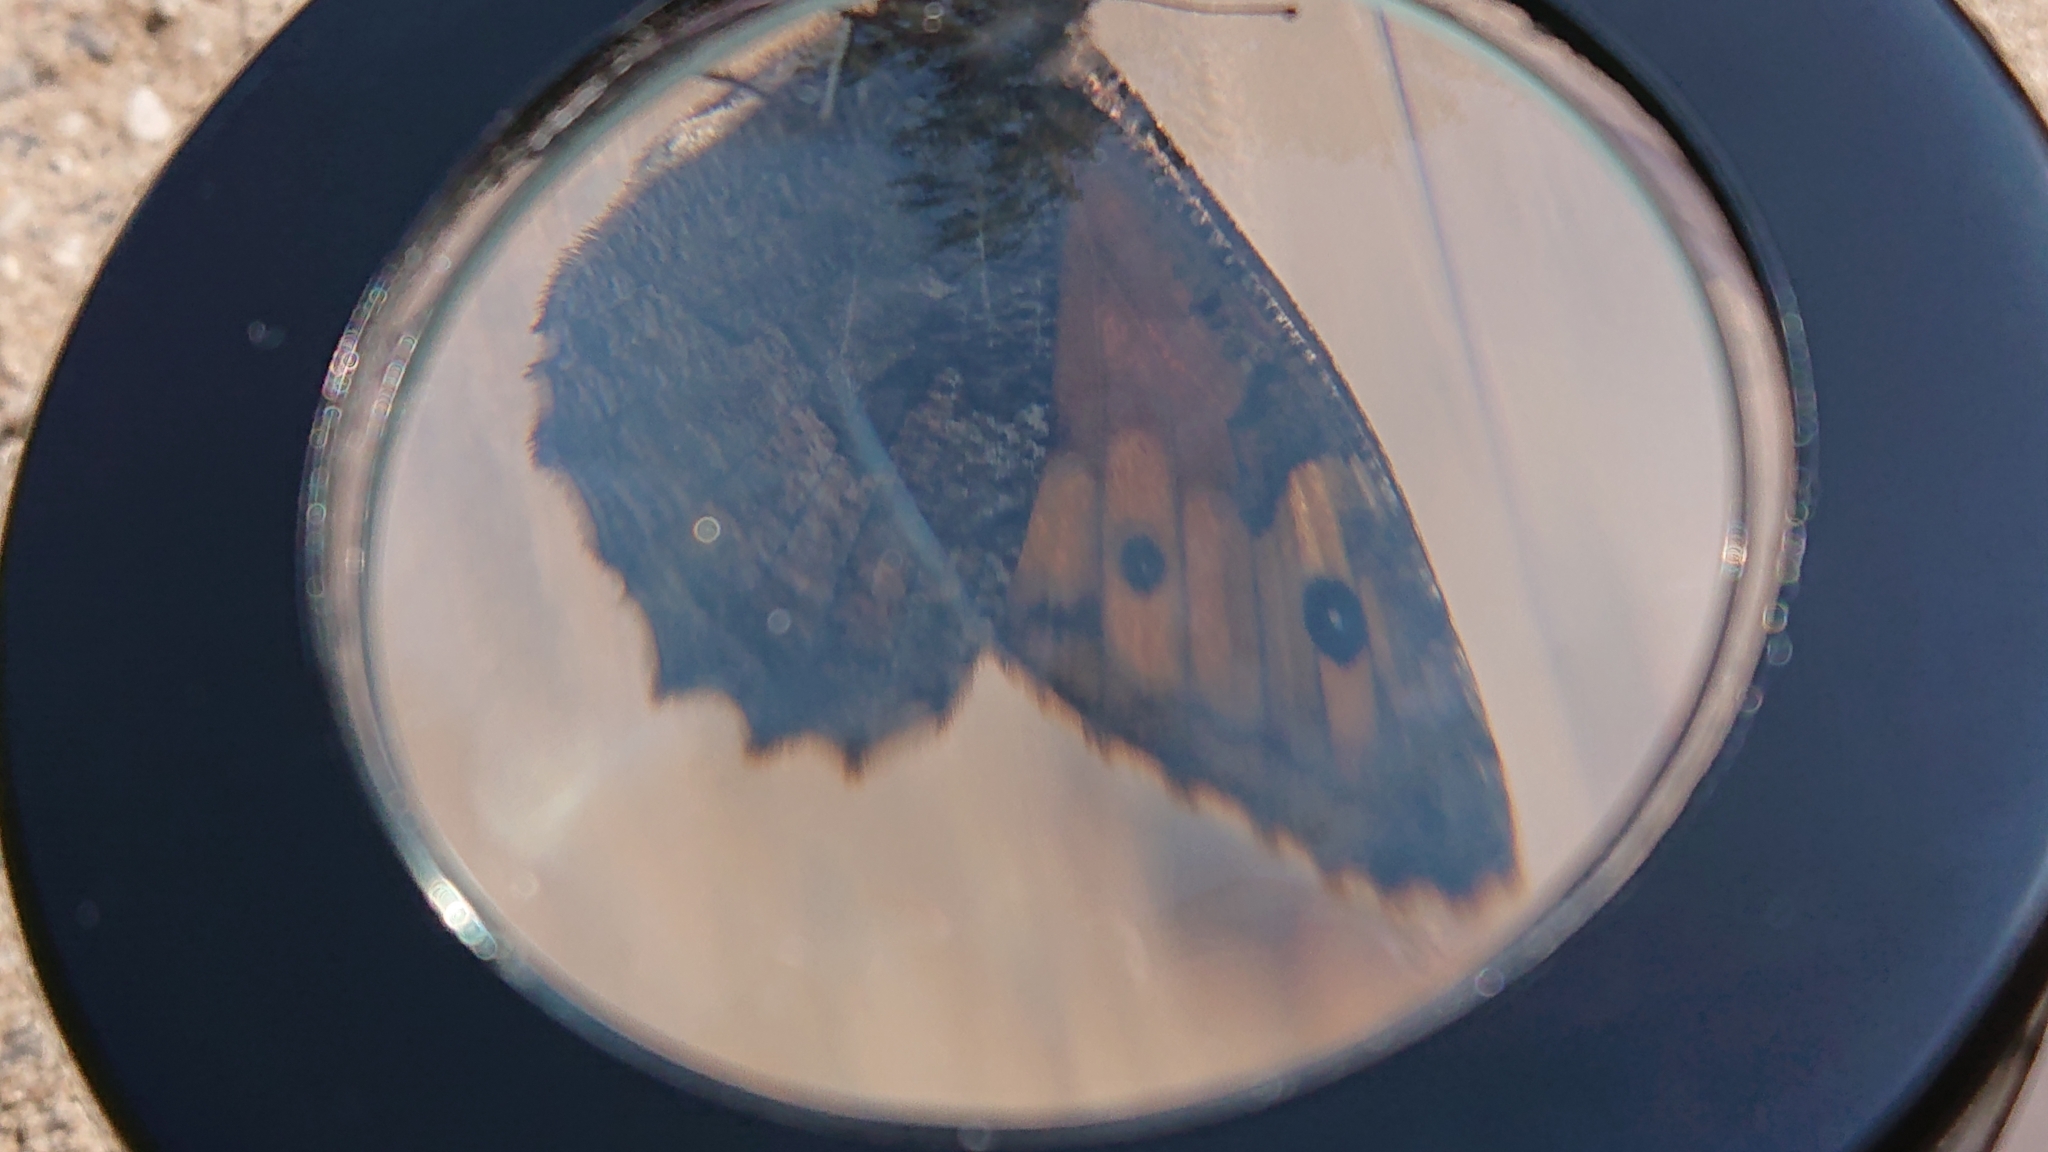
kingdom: Animalia
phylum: Arthropoda
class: Insecta
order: Lepidoptera
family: Nymphalidae
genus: Hipparchia
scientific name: Hipparchia semele
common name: Grayling
